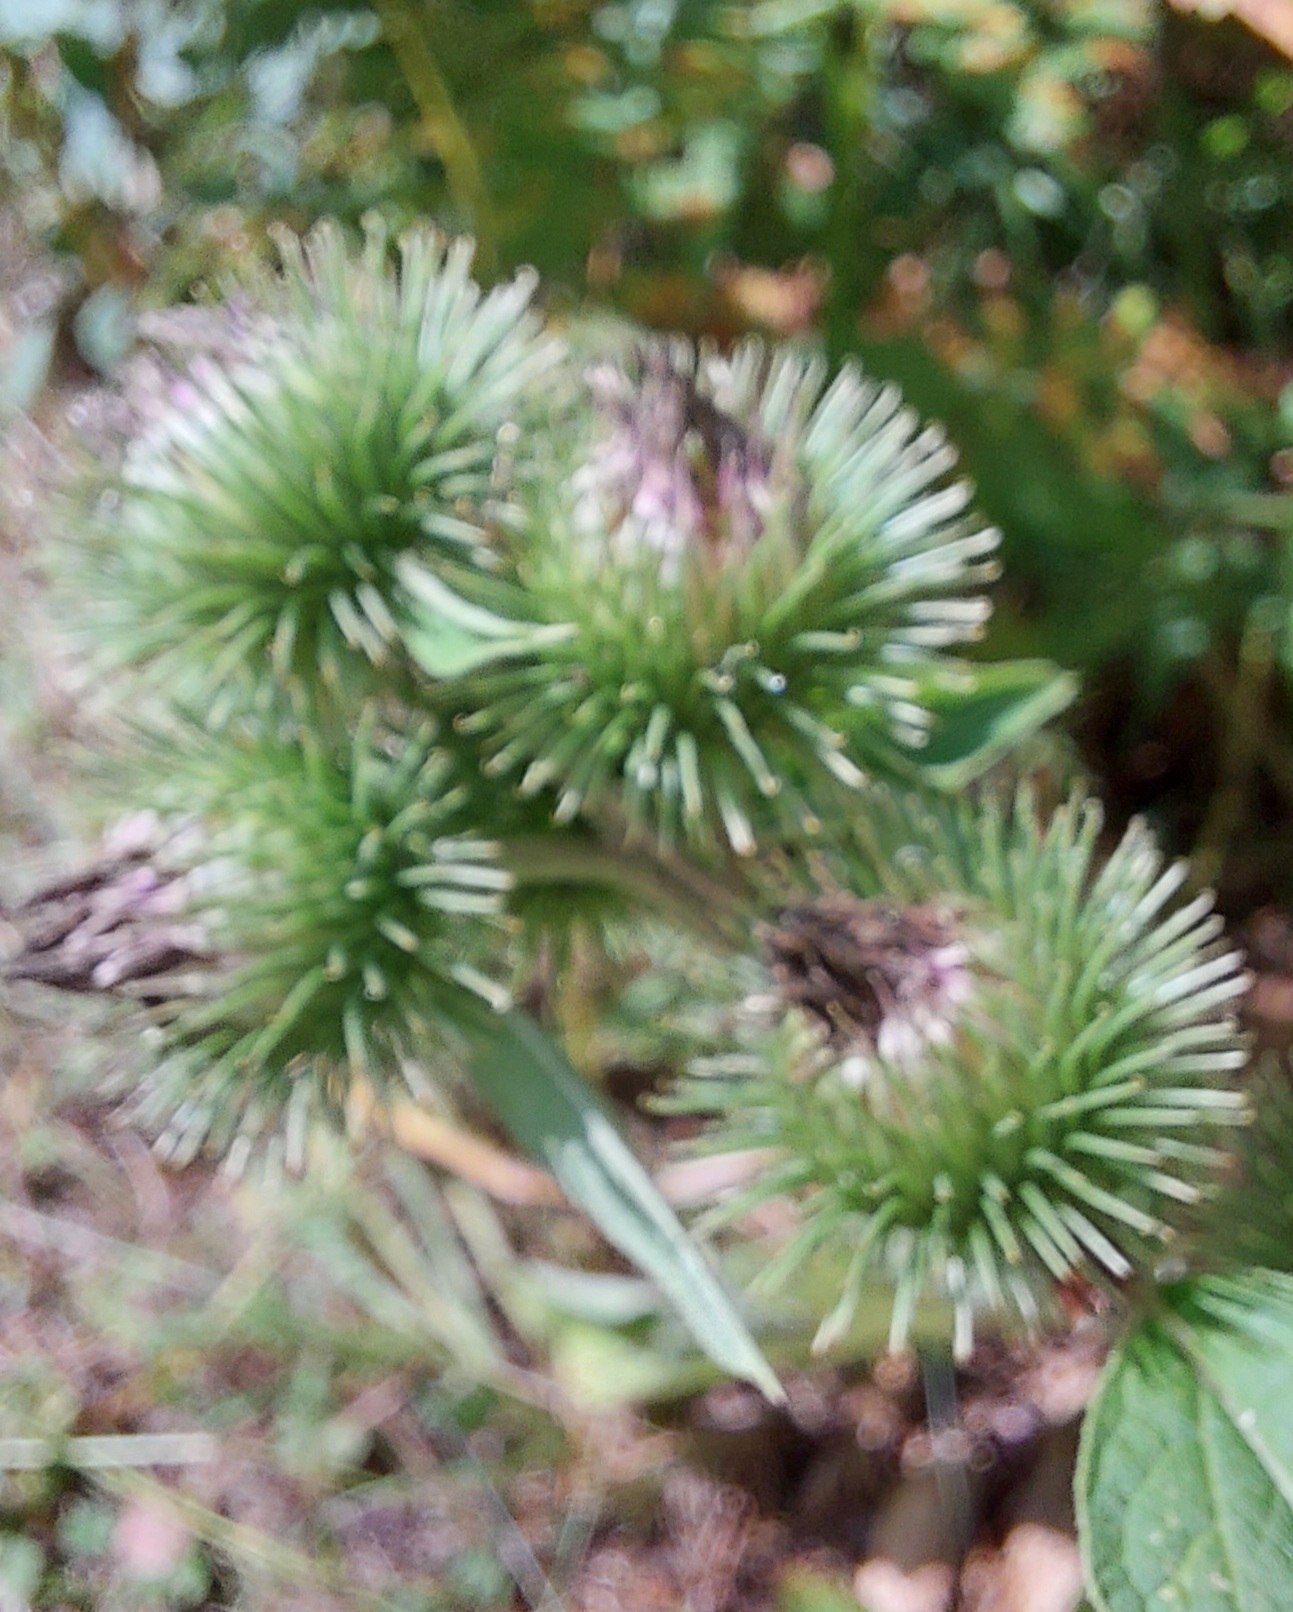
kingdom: Plantae
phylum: Tracheophyta
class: Magnoliopsida
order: Asterales
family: Asteraceae
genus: Arctium
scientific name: Arctium lappa
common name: Greater burdock
